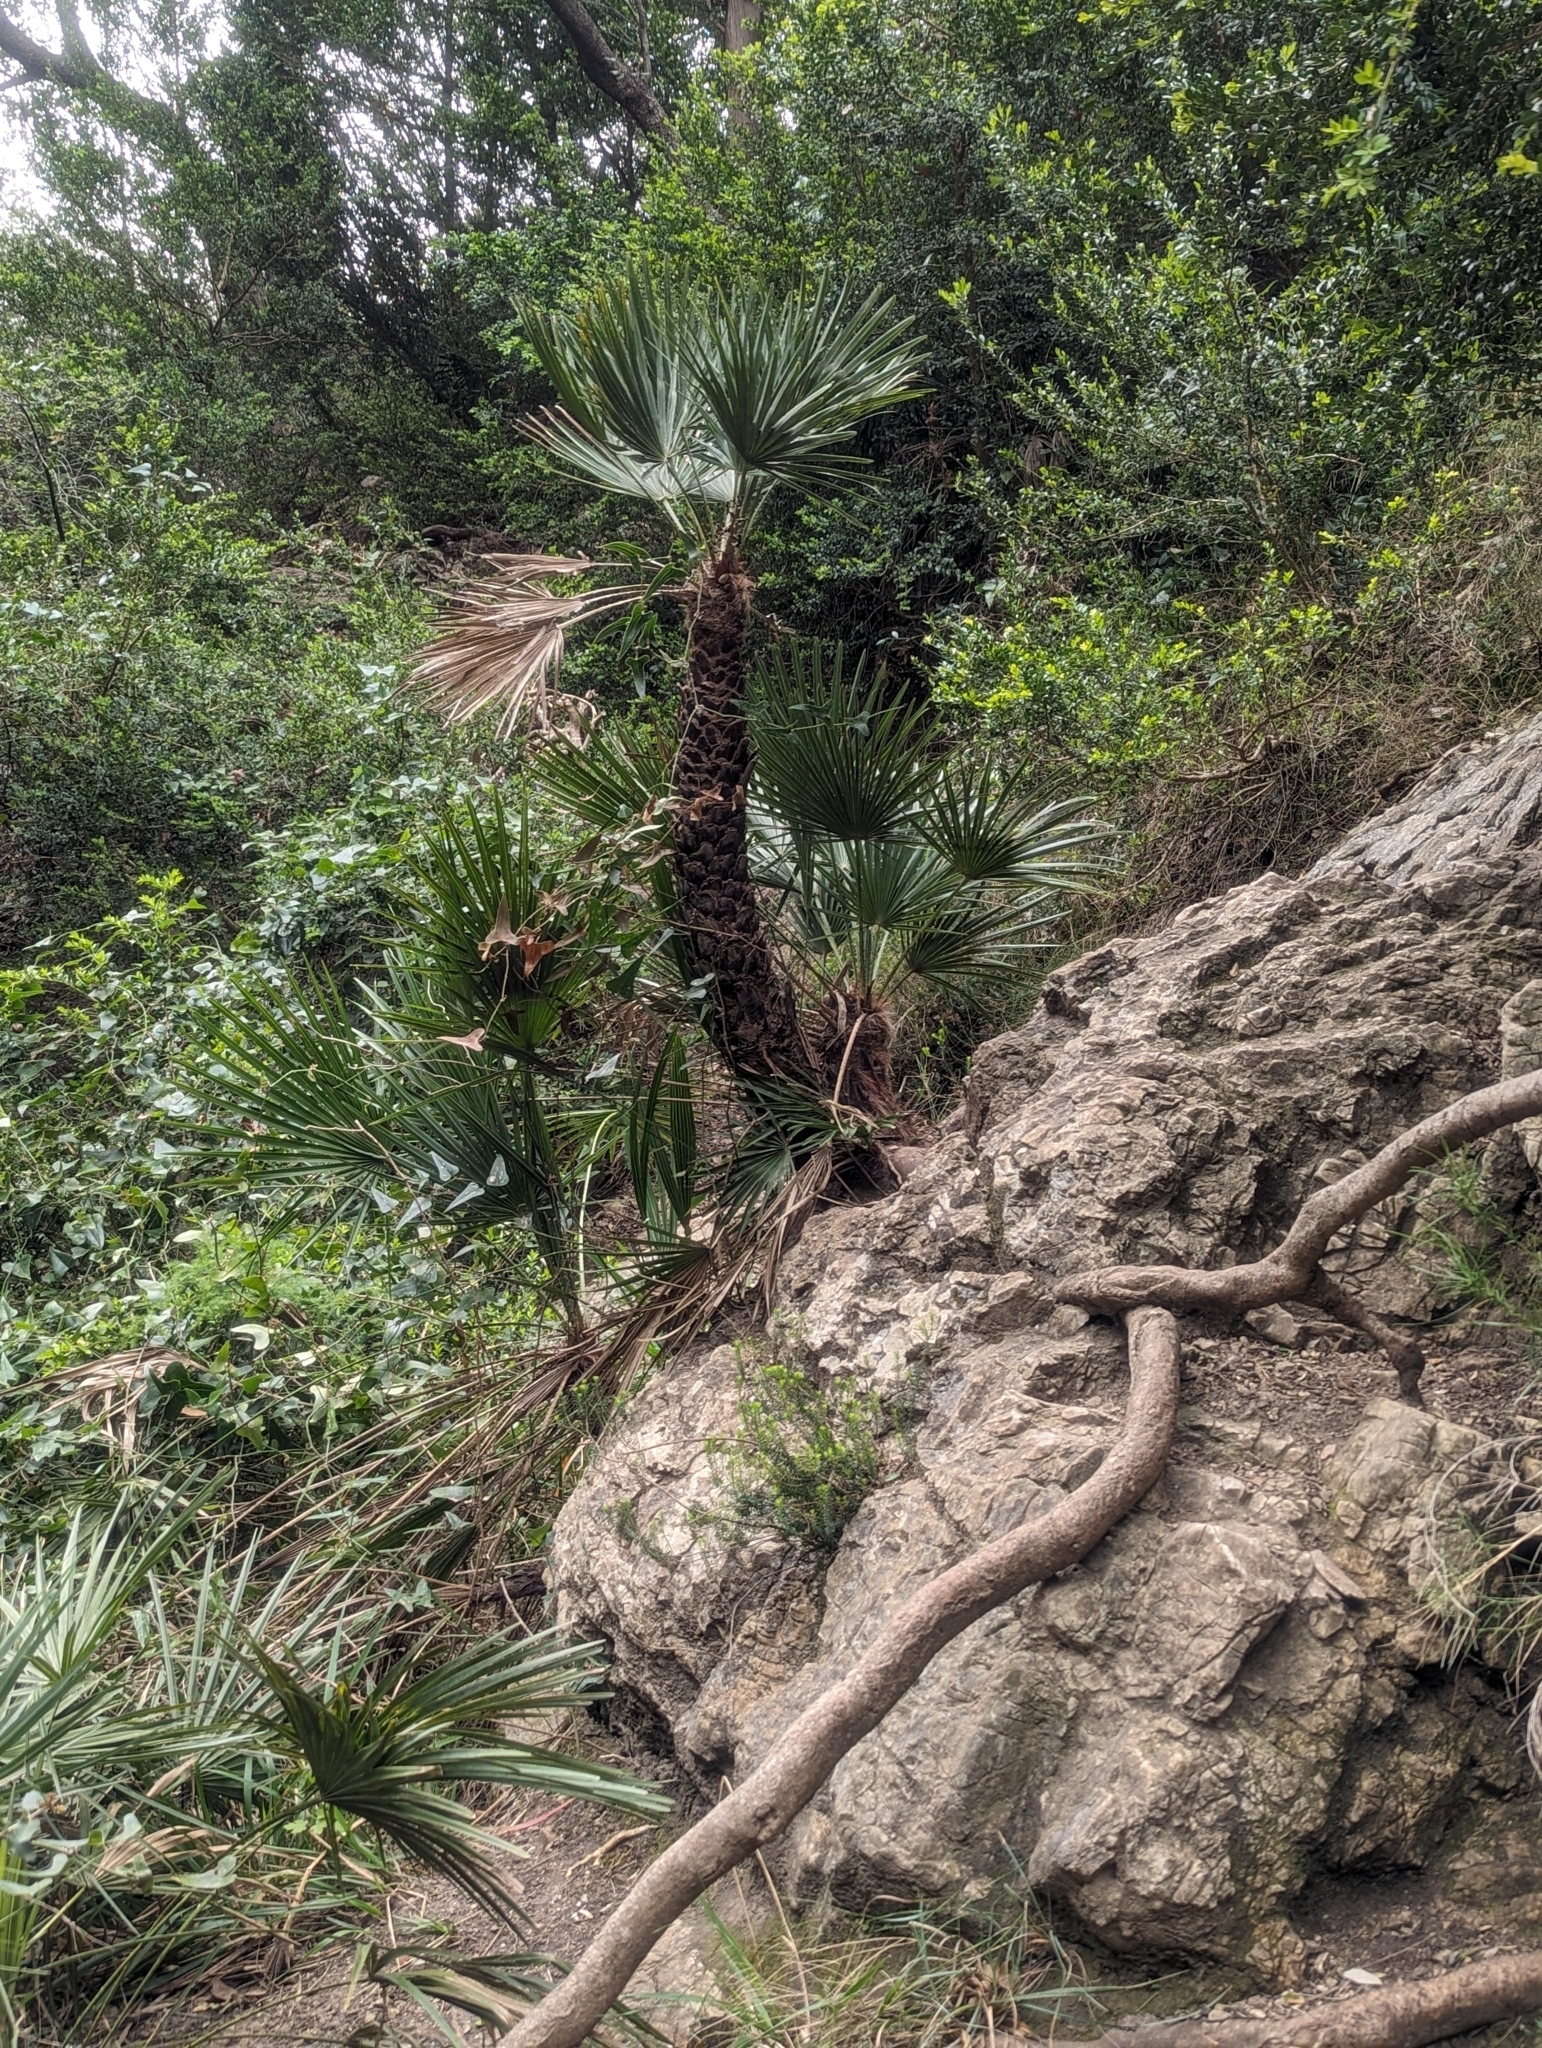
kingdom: Plantae
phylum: Tracheophyta
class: Liliopsida
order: Arecales
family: Arecaceae
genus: Chamaerops
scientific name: Chamaerops humilis
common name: Dwarf fan palm
